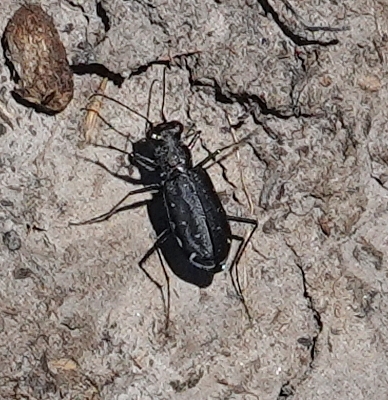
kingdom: Animalia
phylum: Arthropoda
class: Insecta
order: Coleoptera
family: Carabidae
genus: Cicindela
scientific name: Cicindela punctulata
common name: Punctured tiger beetle
